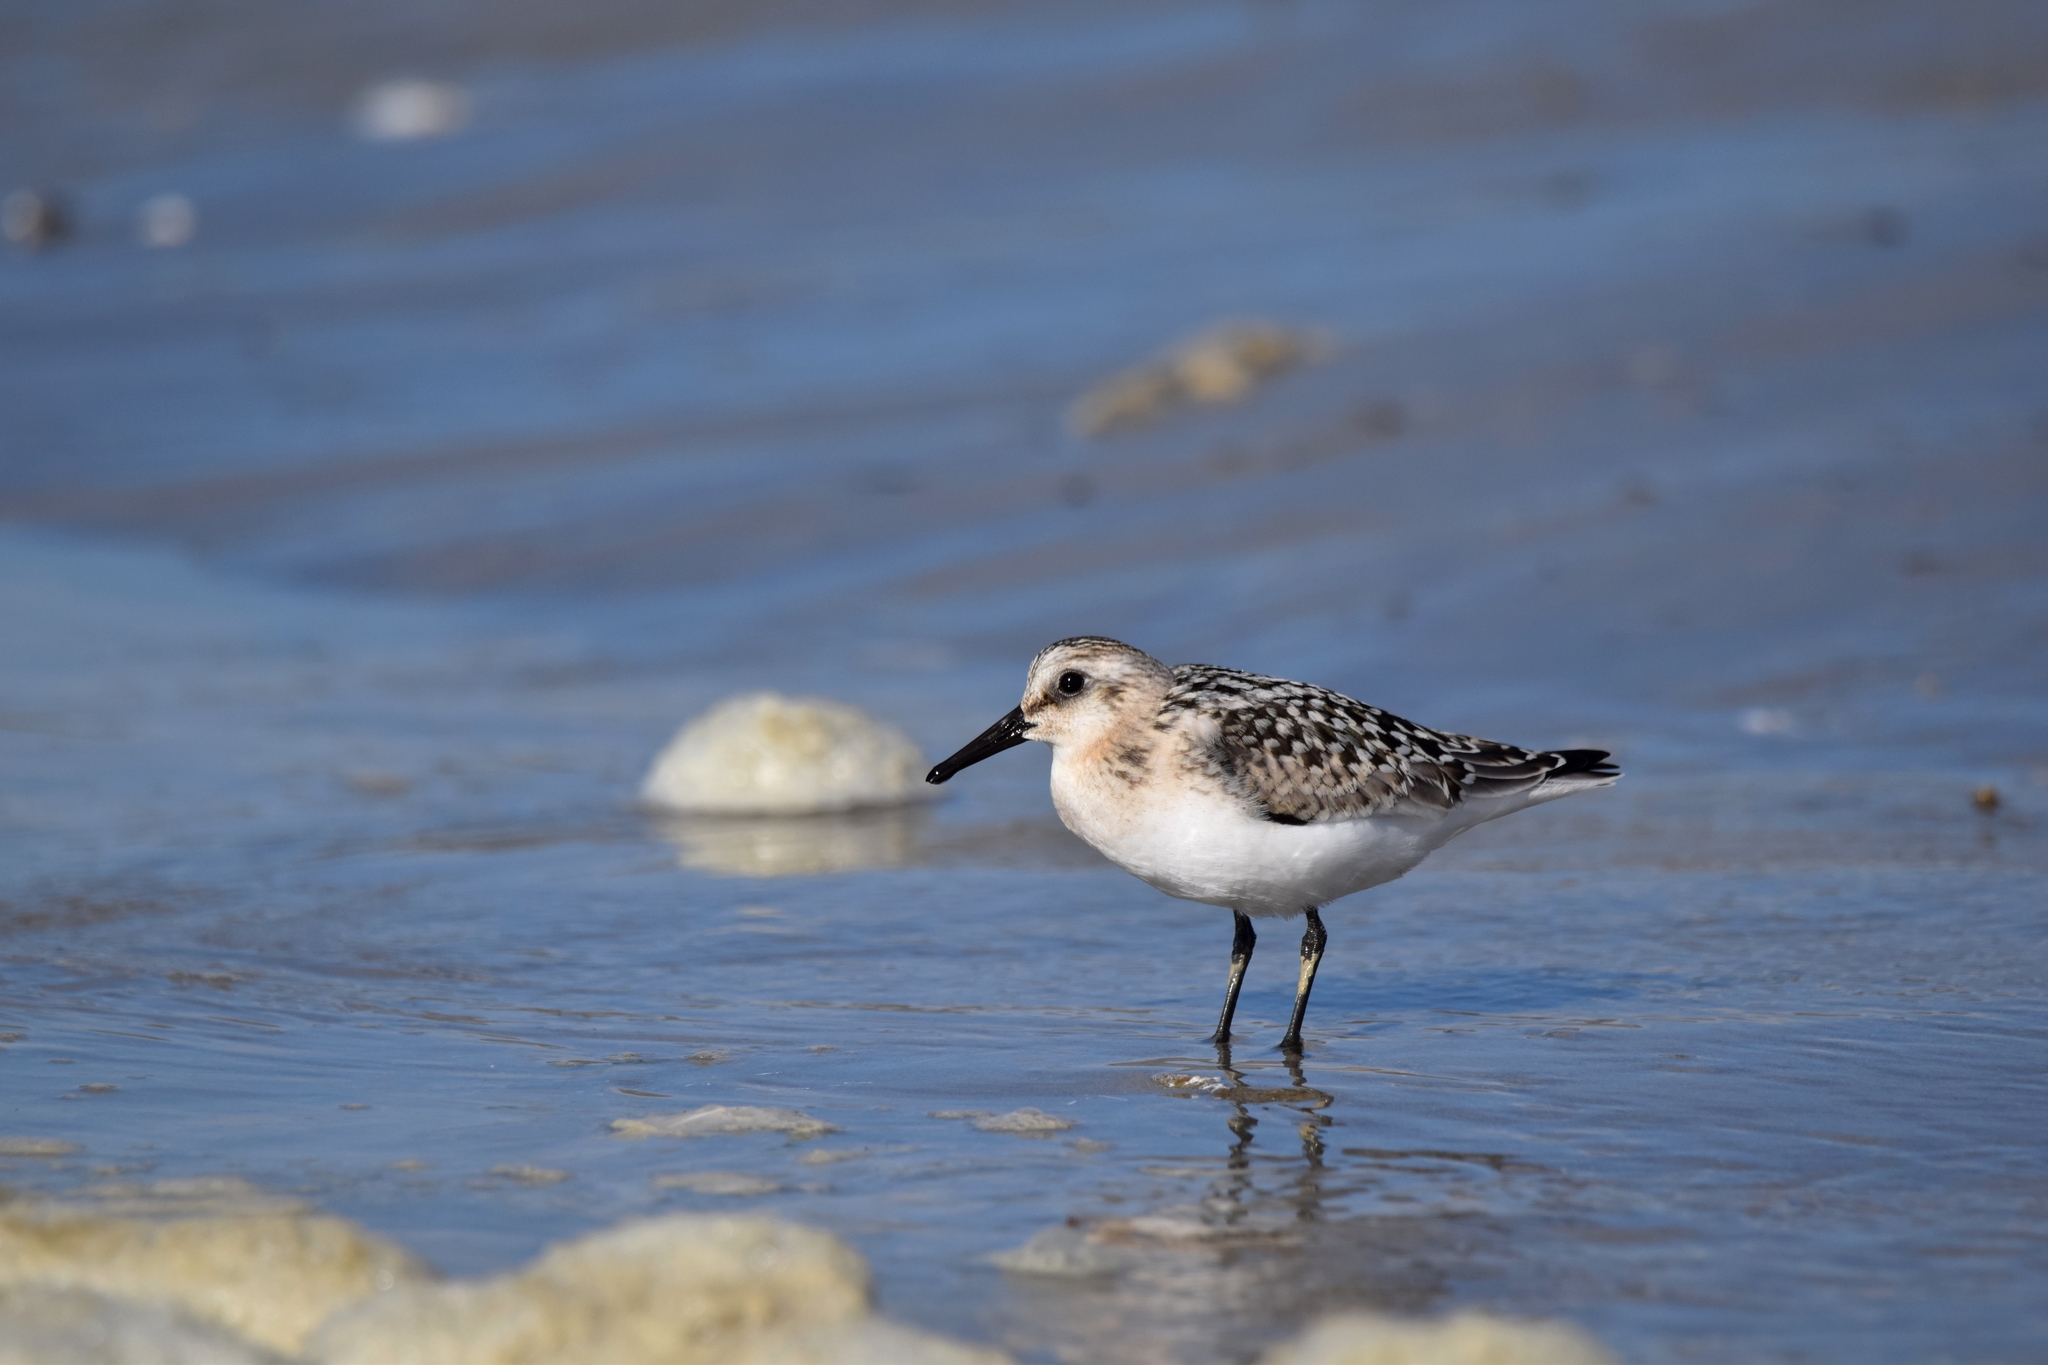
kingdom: Animalia
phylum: Chordata
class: Aves
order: Charadriiformes
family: Scolopacidae
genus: Calidris
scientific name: Calidris alba
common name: Sanderling
